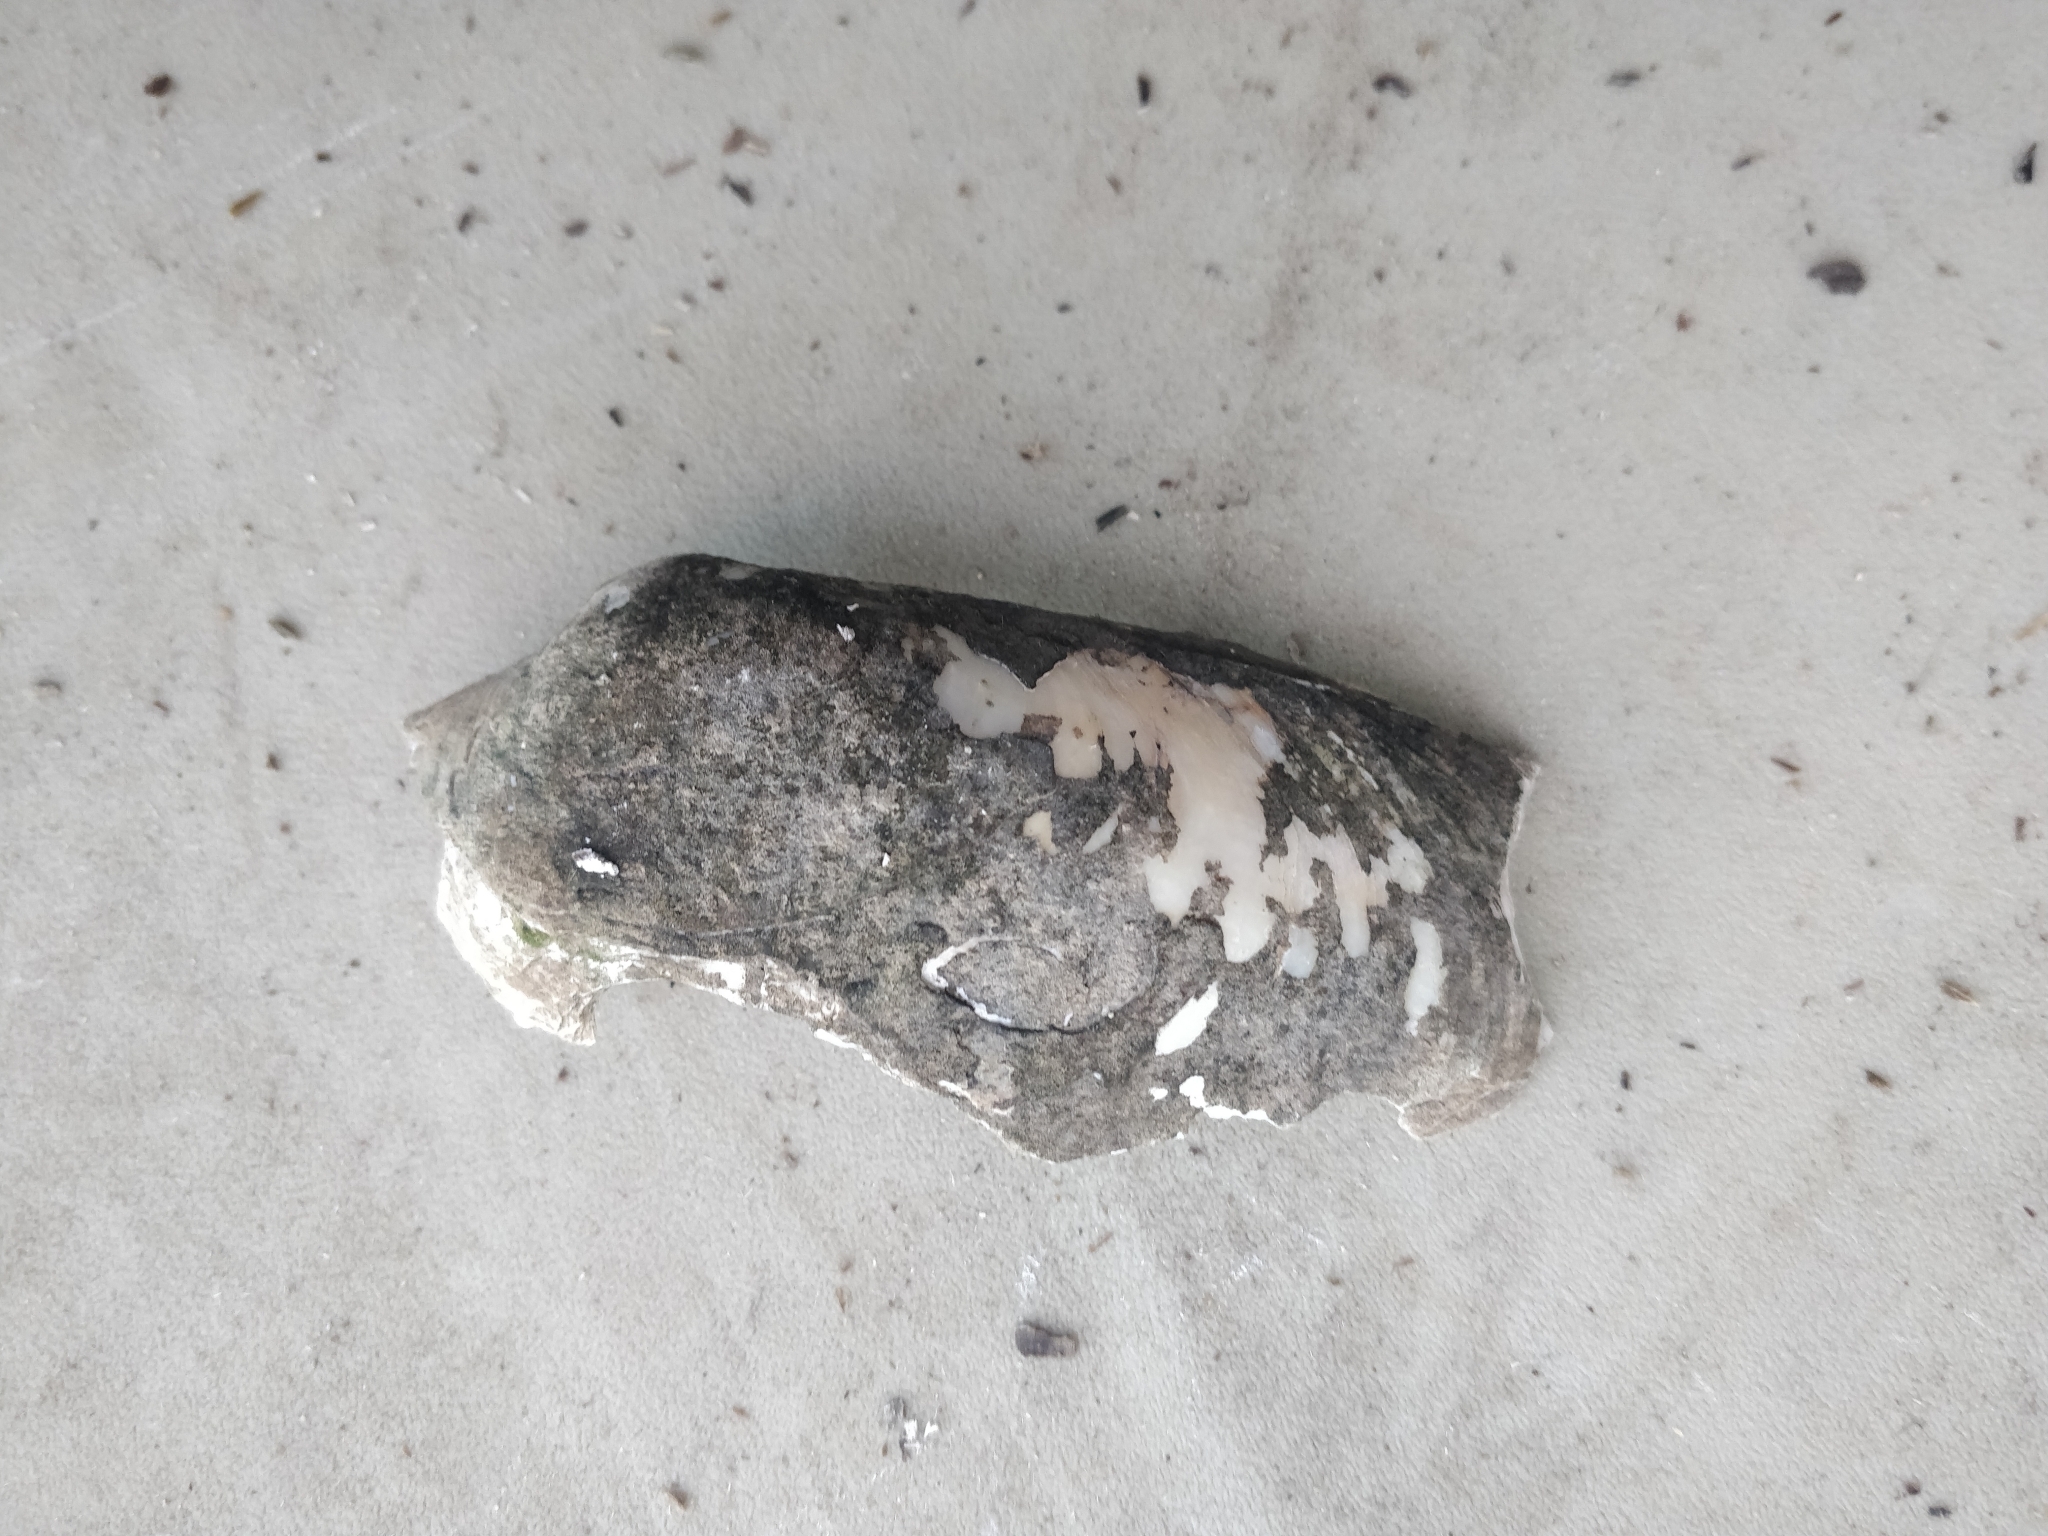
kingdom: Animalia
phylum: Mollusca
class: Bivalvia
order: Unionida
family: Unionidae
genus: Lampsilis
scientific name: Lampsilis cardium
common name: Plain pocketbook
